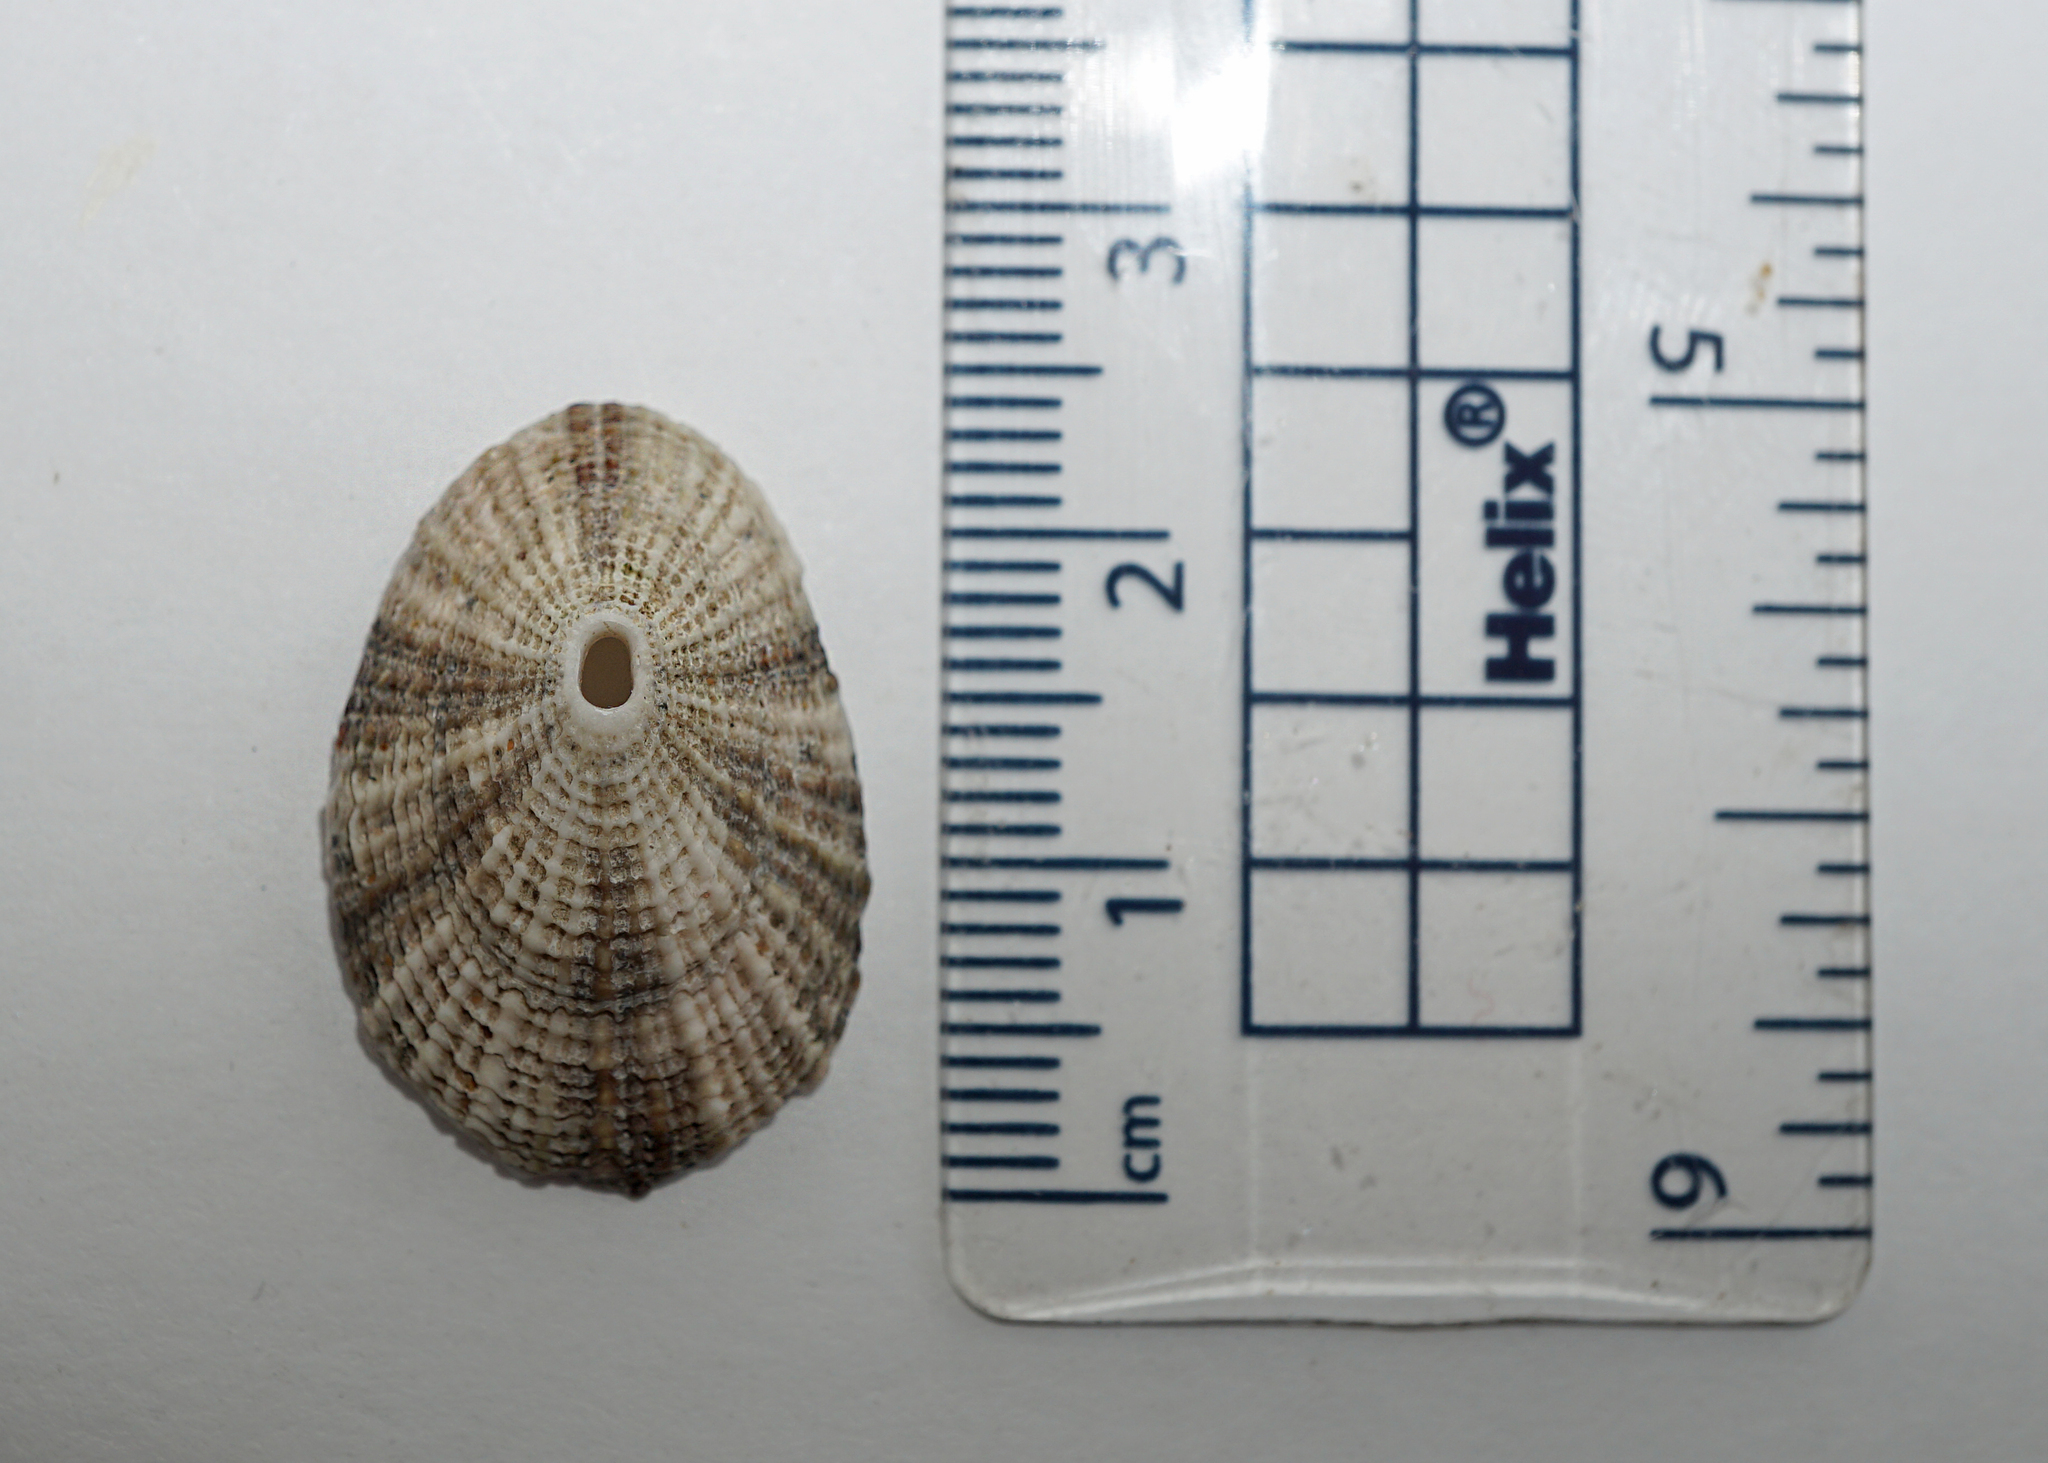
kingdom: Animalia
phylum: Mollusca
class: Gastropoda
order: Lepetellida
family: Fissurellidae
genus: Diodora
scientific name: Diodora graeca
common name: Common keyhole limpet
